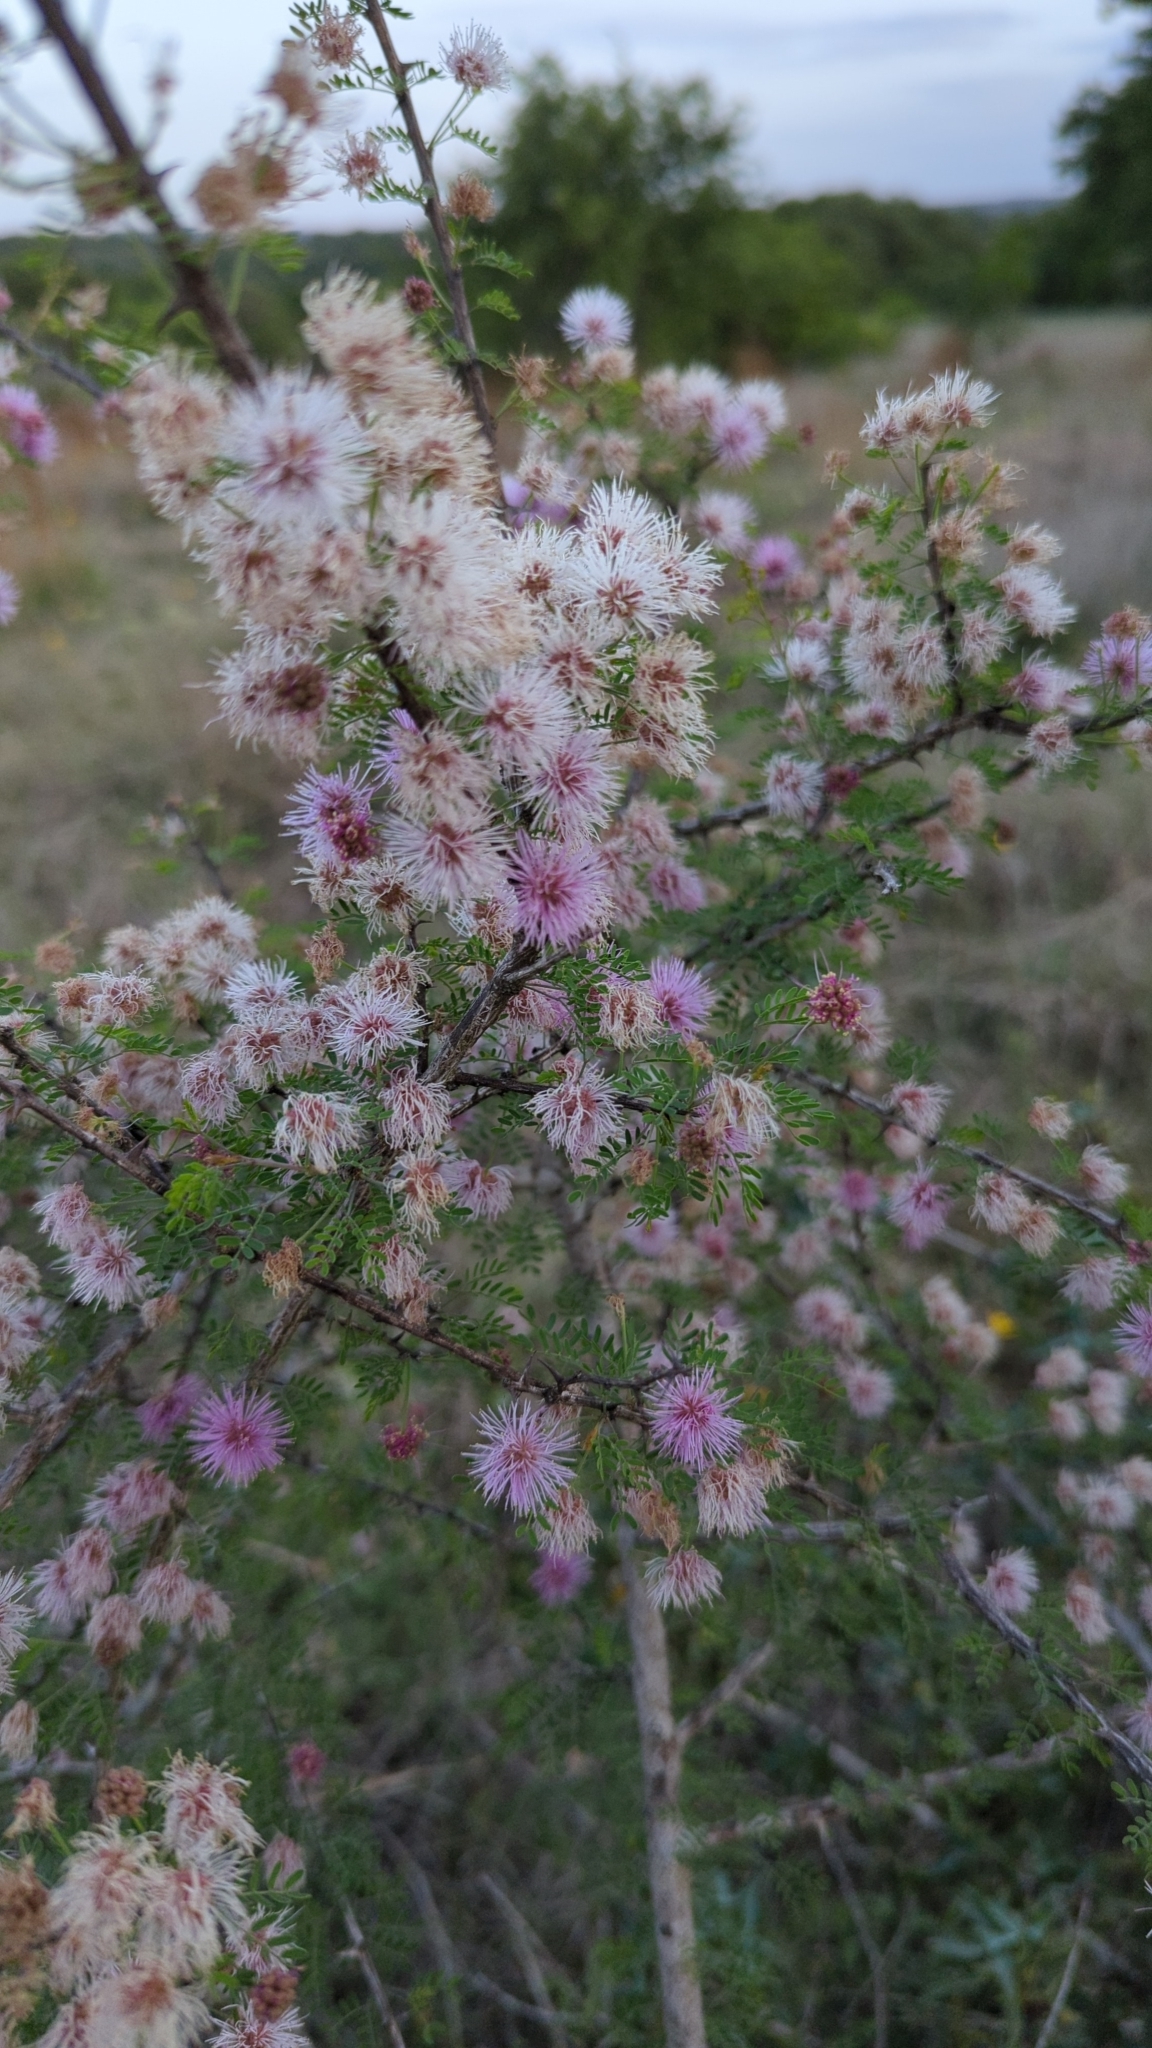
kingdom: Plantae
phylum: Tracheophyta
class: Magnoliopsida
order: Fabales
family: Fabaceae
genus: Mimosa
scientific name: Mimosa borealis
